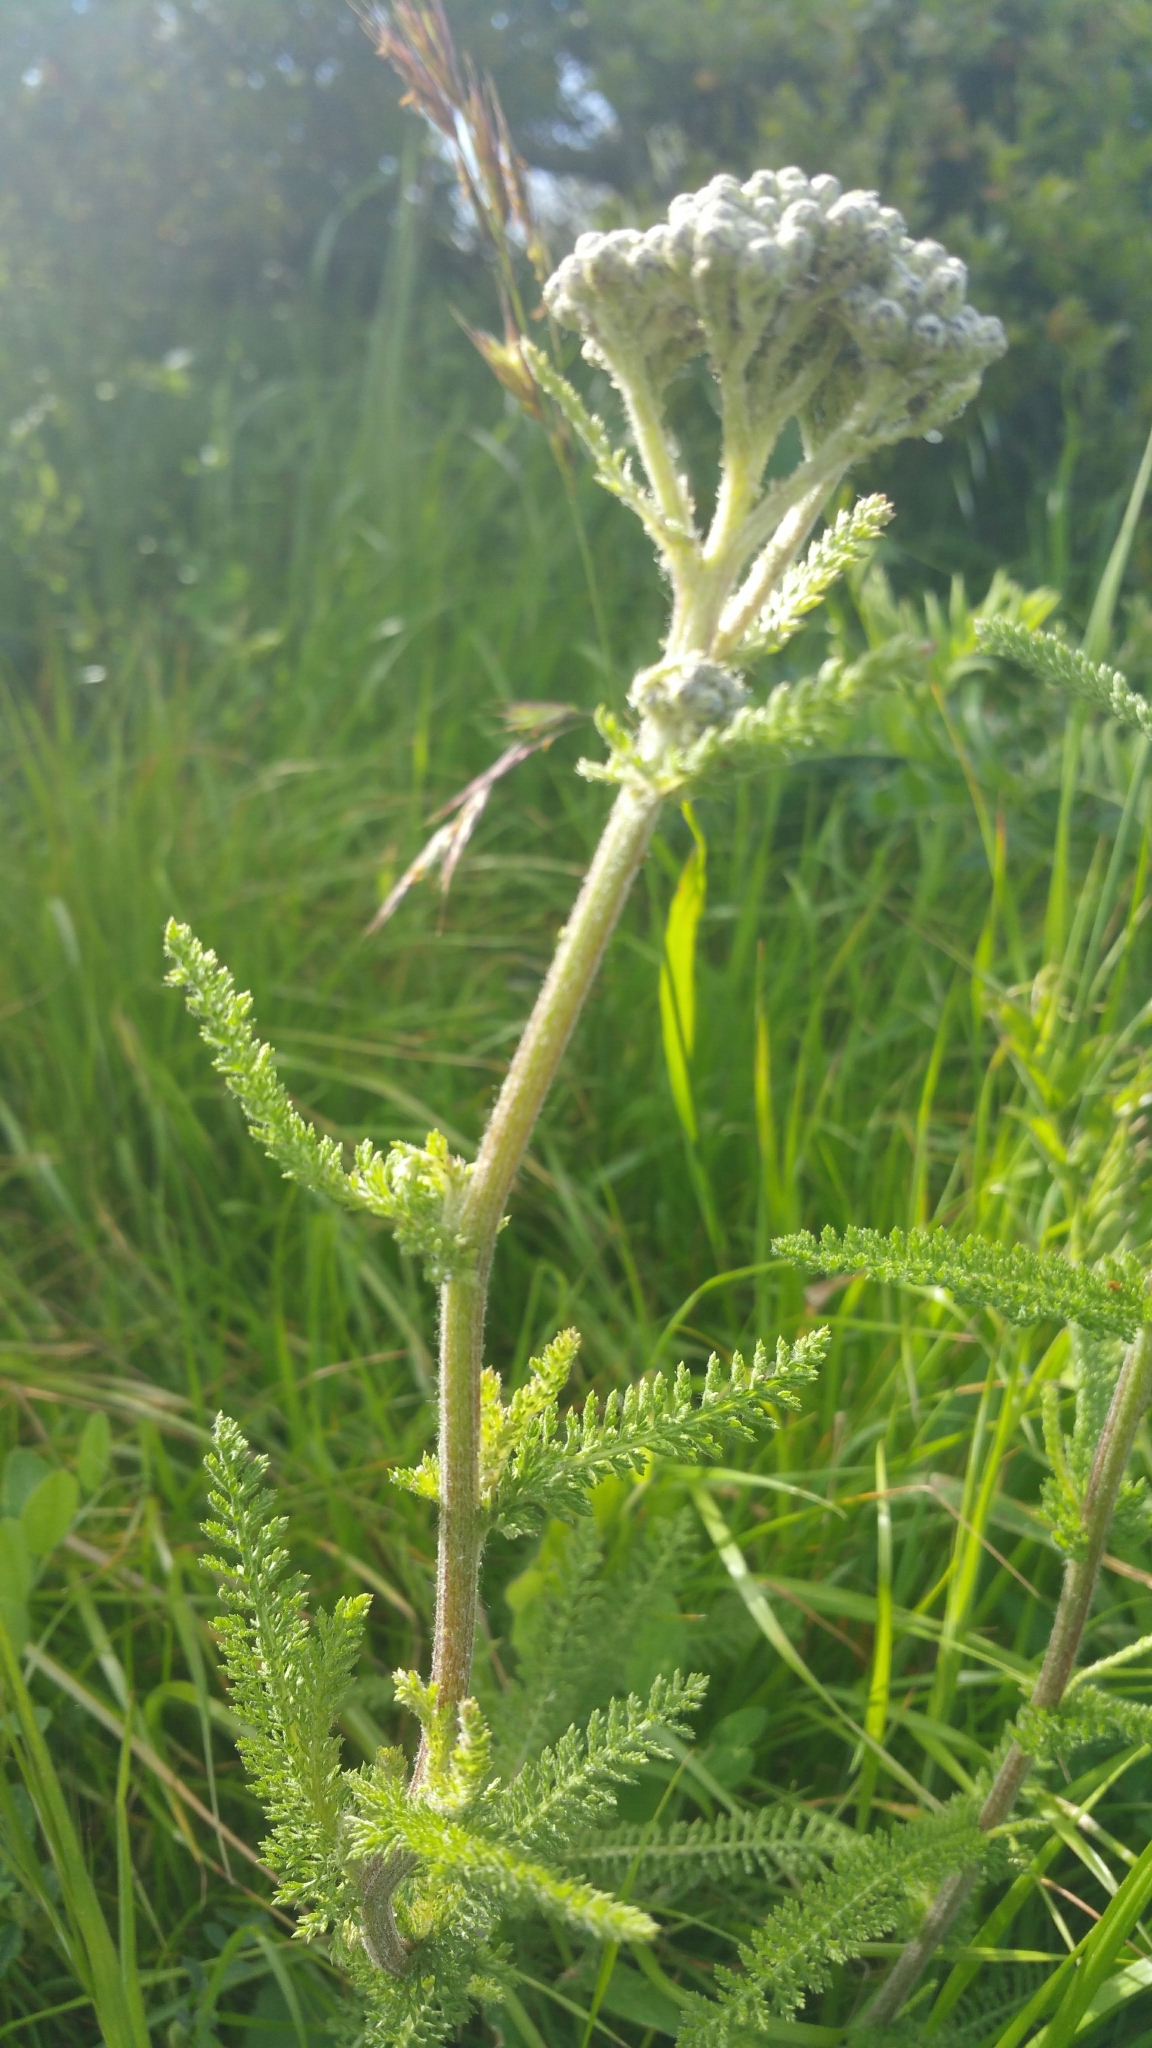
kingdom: Plantae
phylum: Tracheophyta
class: Magnoliopsida
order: Asterales
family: Asteraceae
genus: Achillea
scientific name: Achillea millefolium
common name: Yarrow
